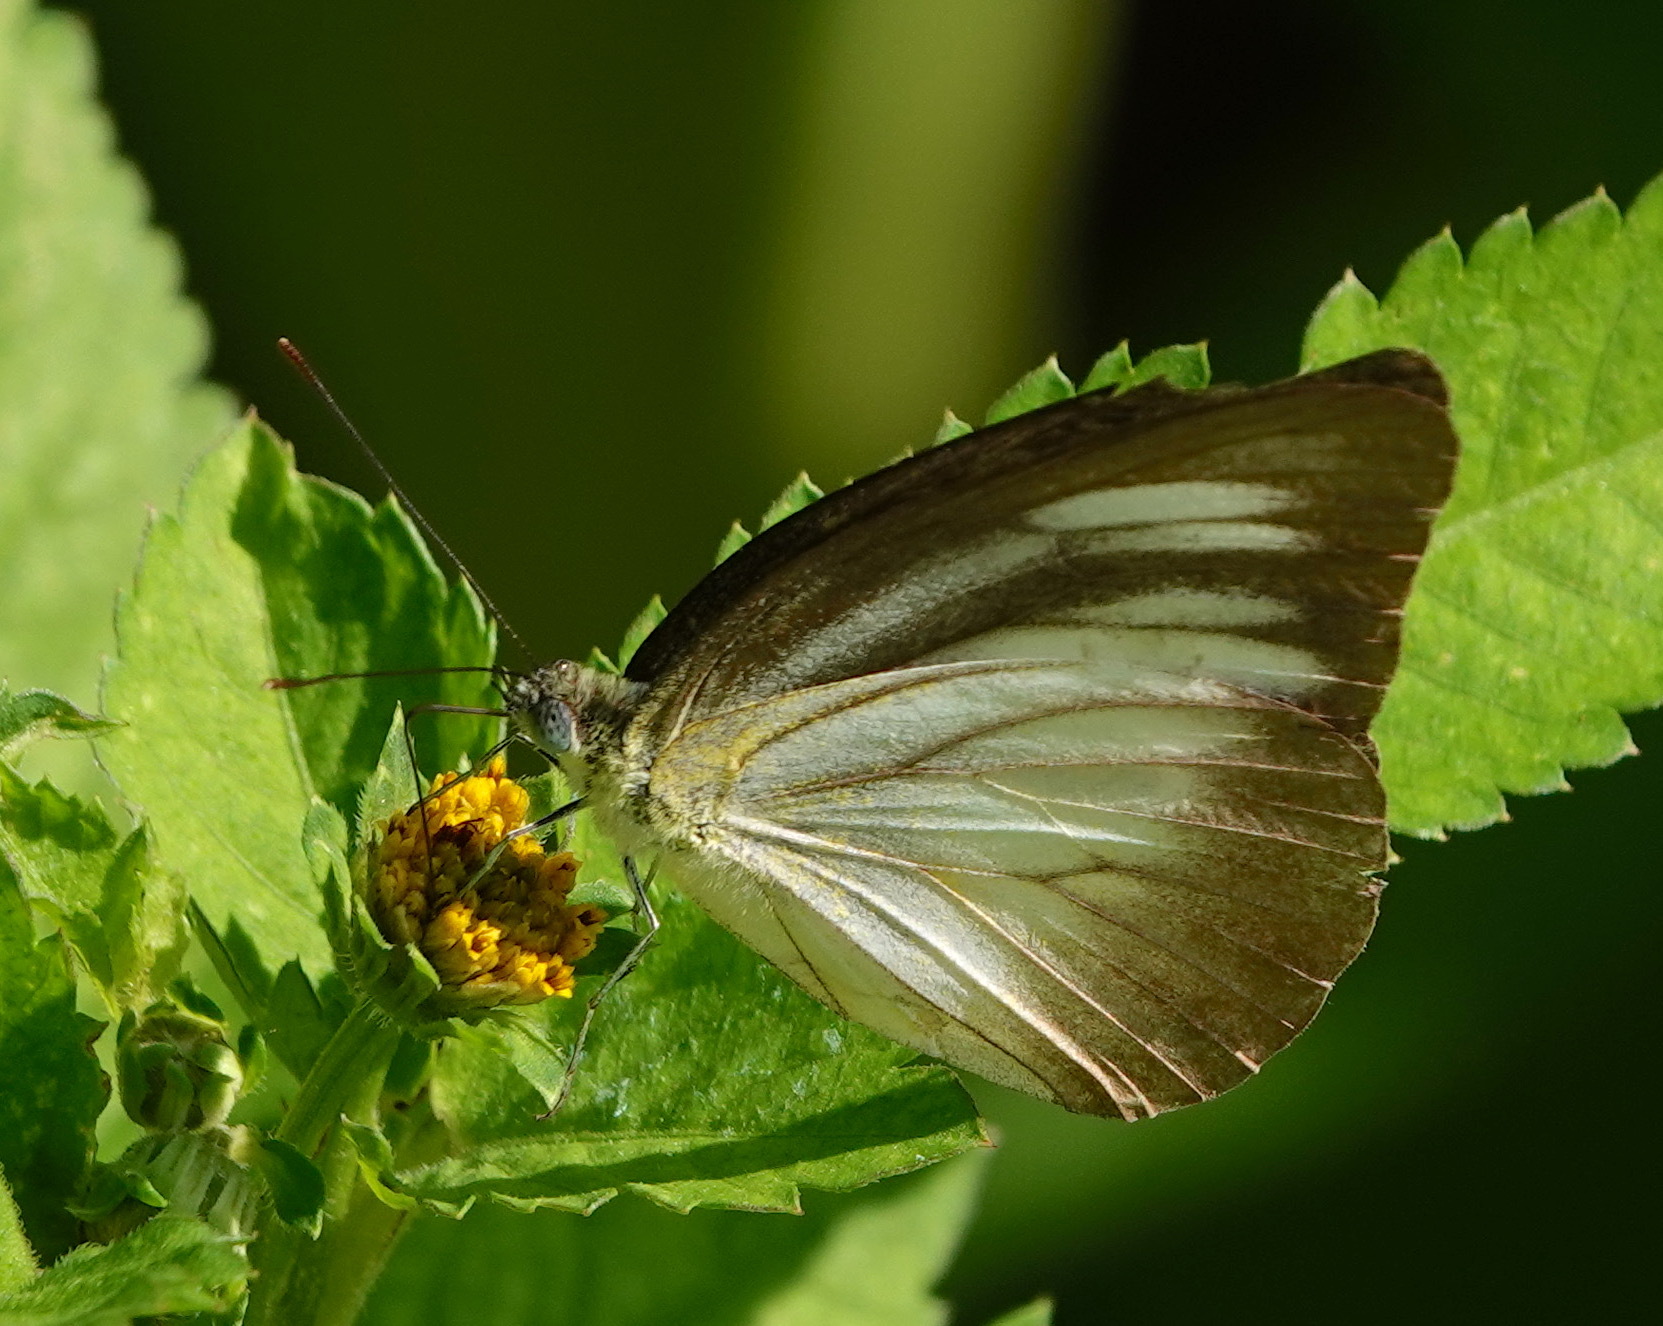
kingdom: Animalia
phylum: Arthropoda
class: Insecta
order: Lepidoptera
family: Pieridae
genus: Appias
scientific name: Appias lyncida
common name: Chocolate albatross
